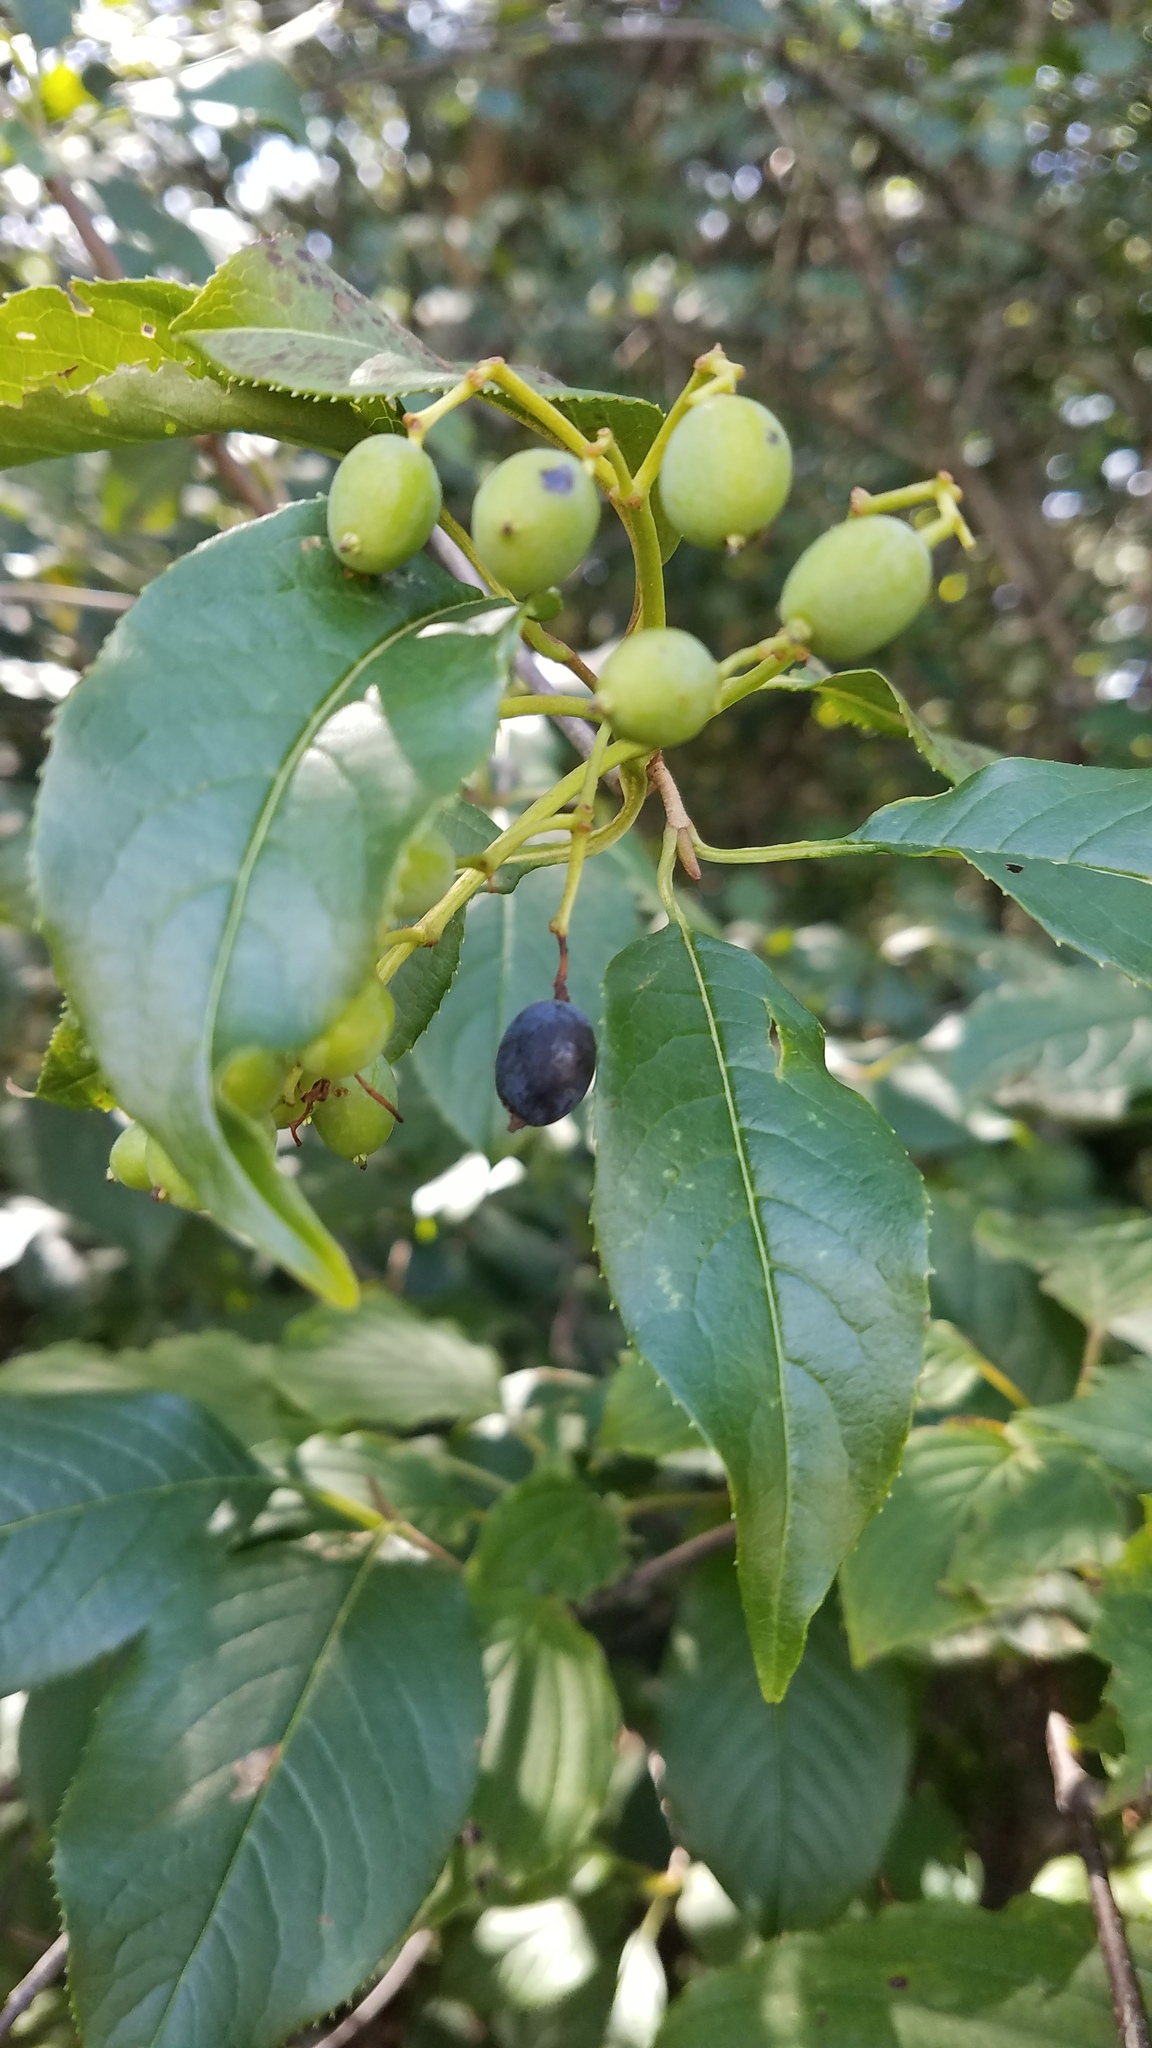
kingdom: Plantae
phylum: Tracheophyta
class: Magnoliopsida
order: Dipsacales
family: Viburnaceae
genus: Viburnum
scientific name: Viburnum lentago
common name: Black haw
